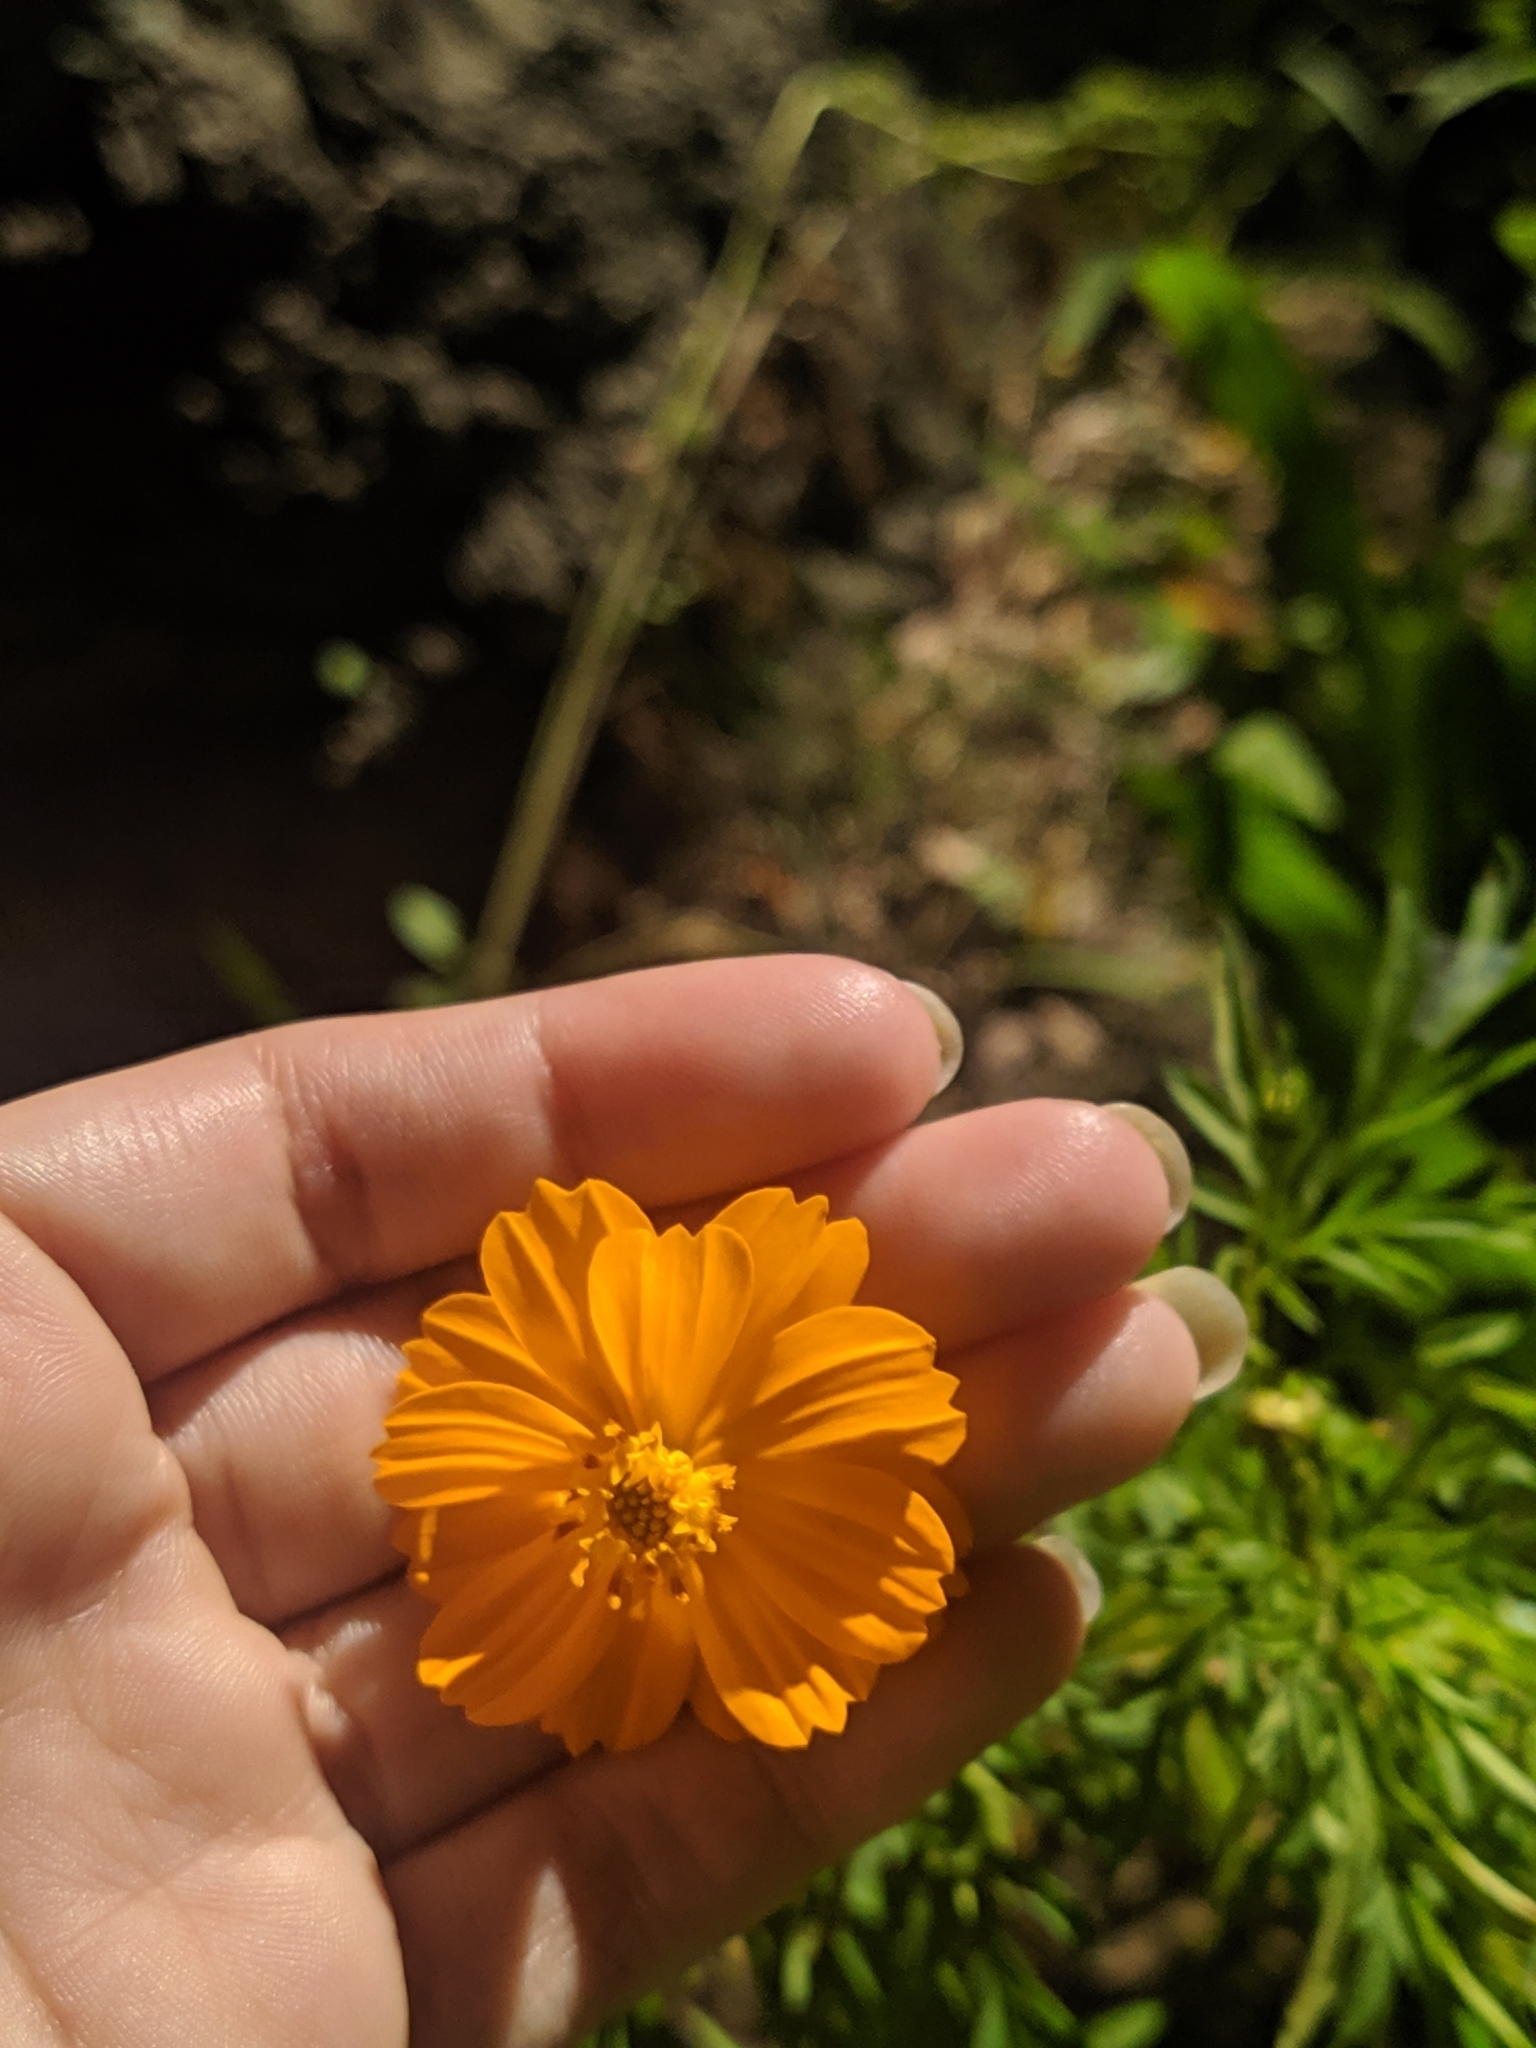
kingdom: Plantae
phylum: Tracheophyta
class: Magnoliopsida
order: Asterales
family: Asteraceae
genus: Cosmos
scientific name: Cosmos sulphureus
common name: Sulphur cosmos
